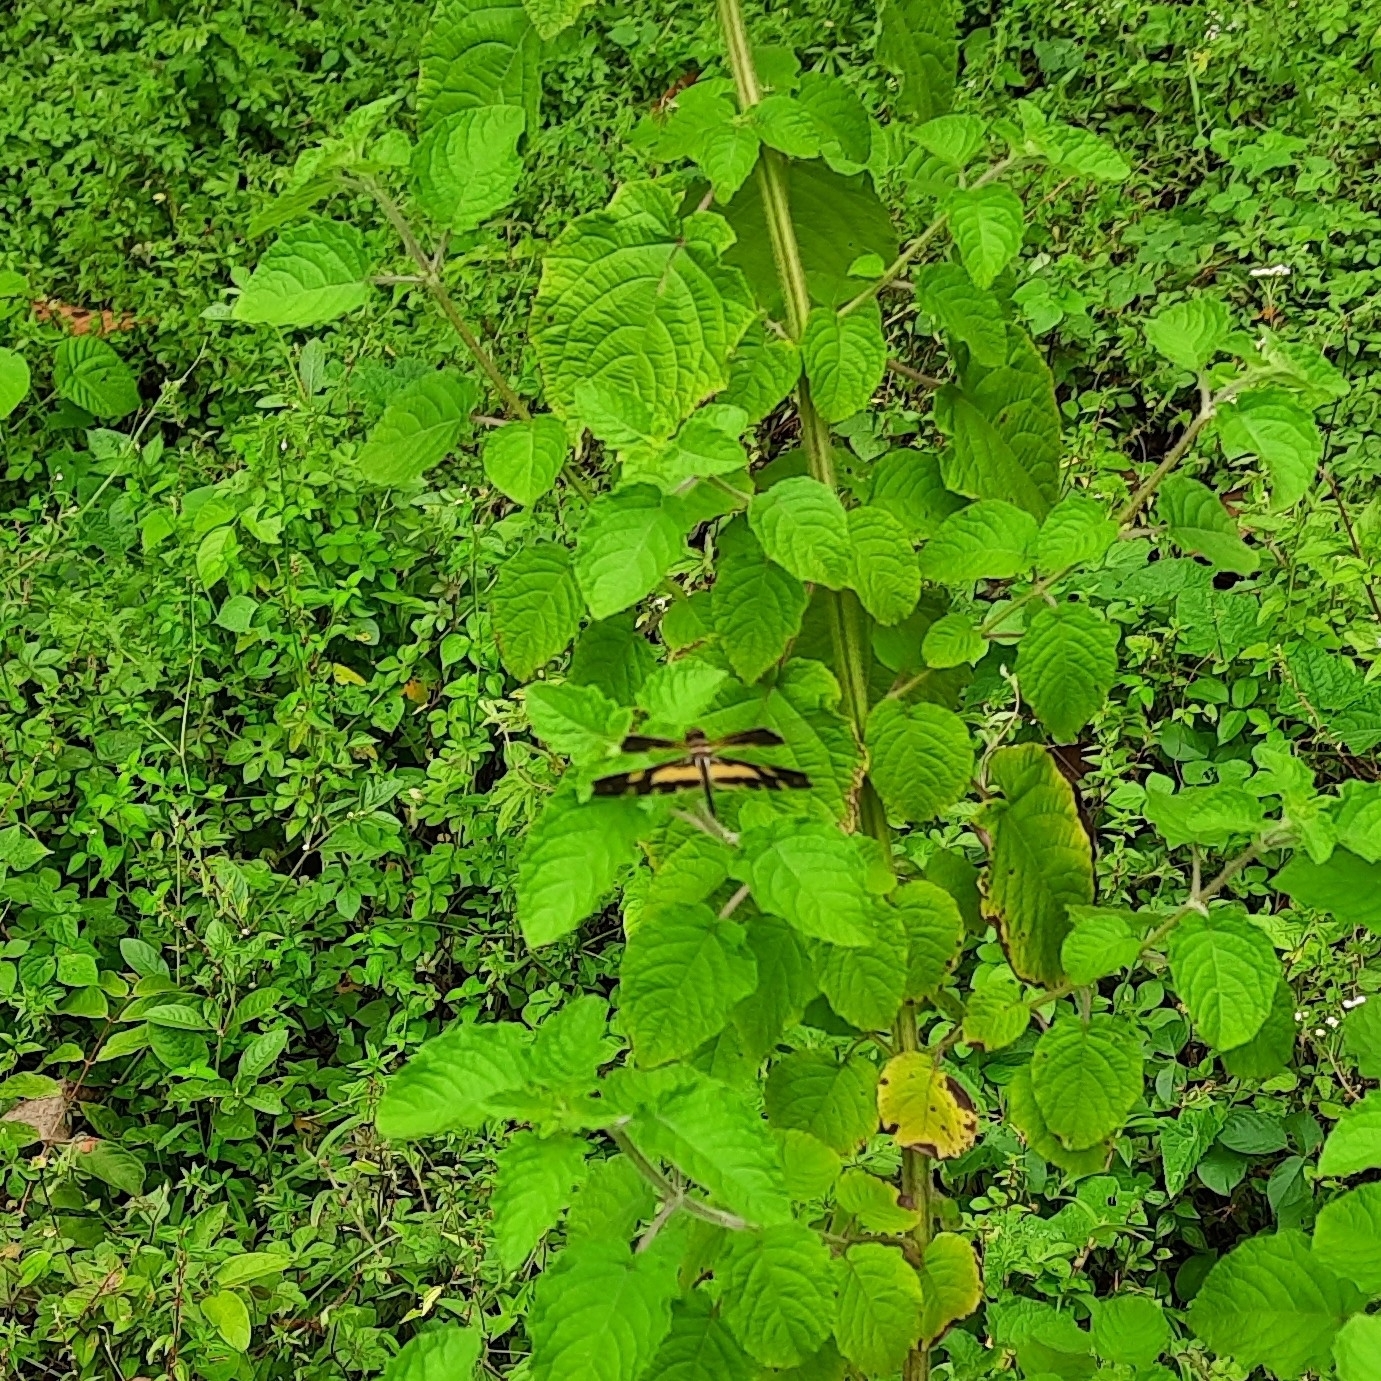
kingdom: Animalia
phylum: Arthropoda
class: Insecta
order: Odonata
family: Libellulidae
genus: Rhyothemis
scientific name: Rhyothemis variegata
